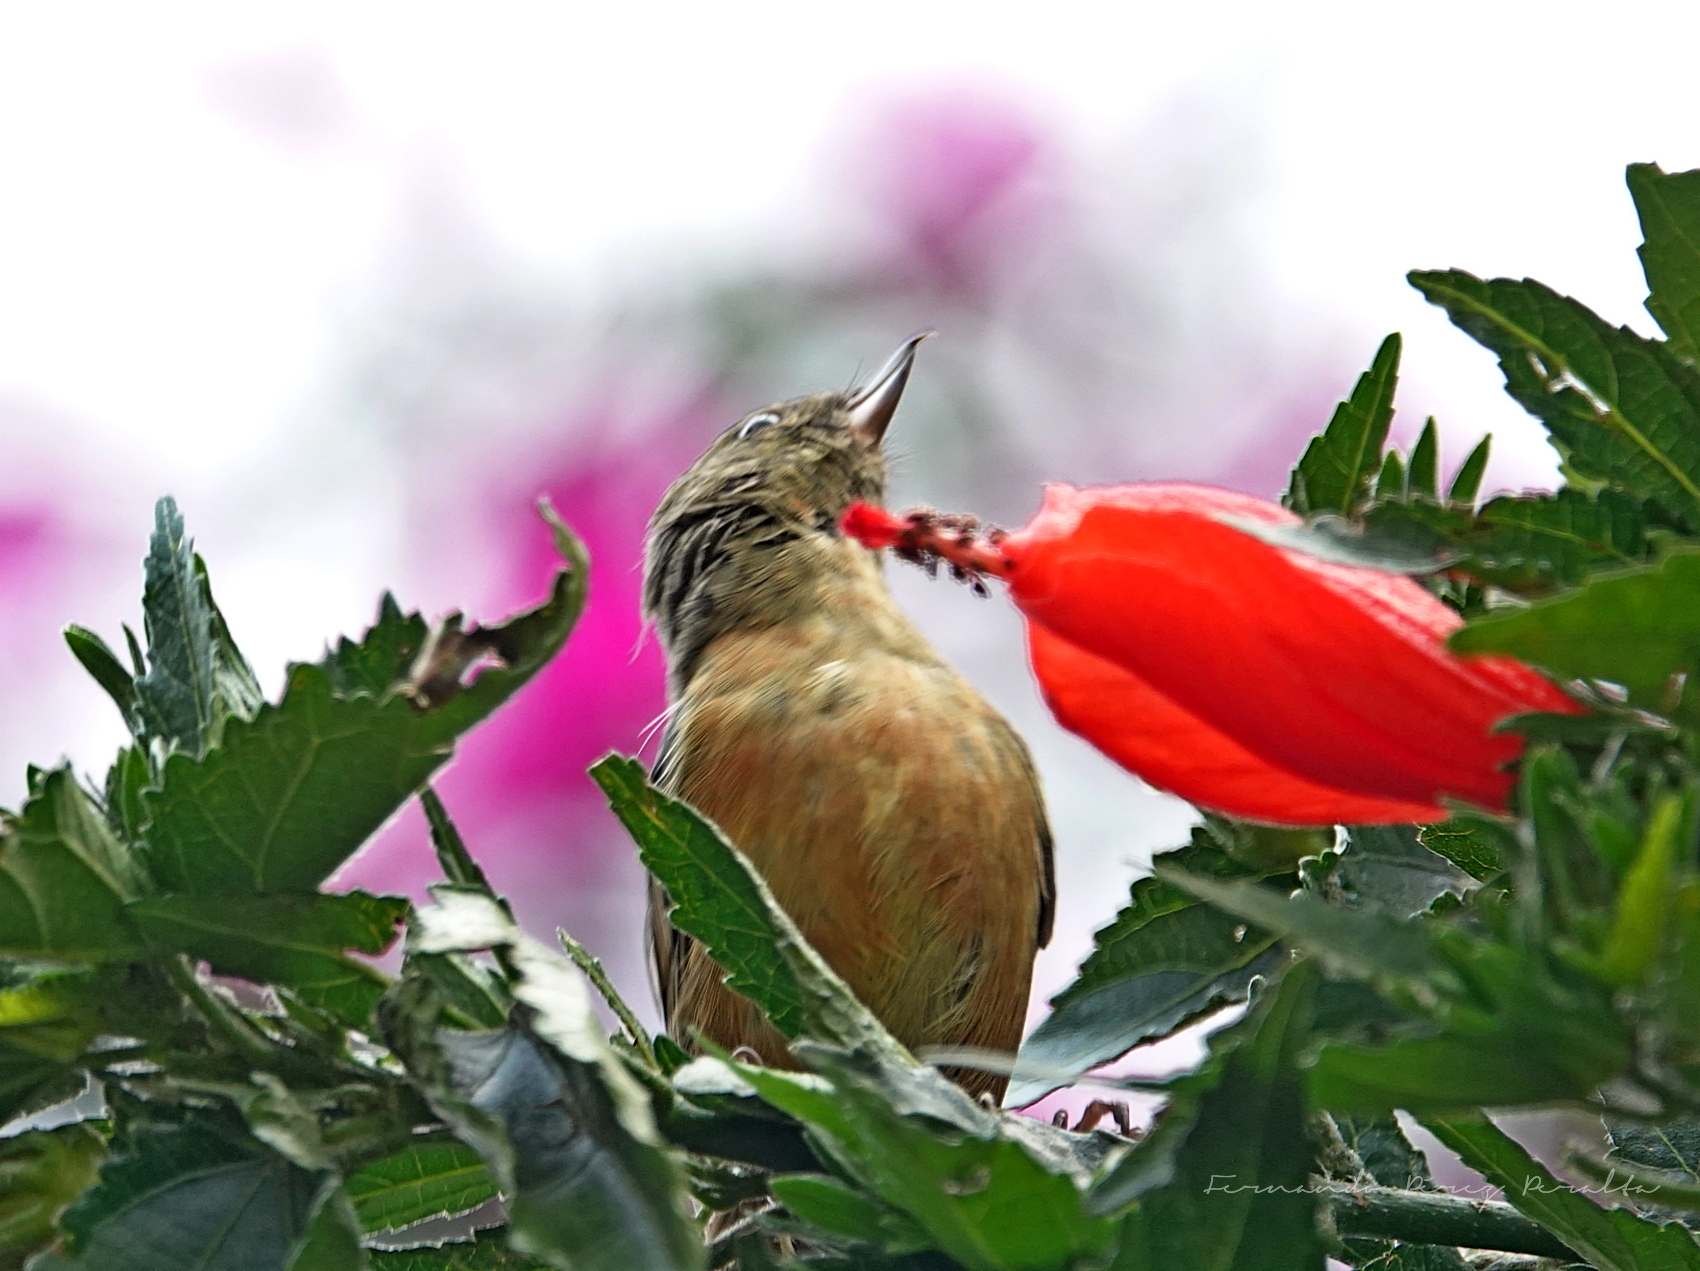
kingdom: Animalia
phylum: Chordata
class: Aves
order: Passeriformes
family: Thraupidae
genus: Diglossa
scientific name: Diglossa baritula
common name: Cinnamon-bellied flowerpiercer
